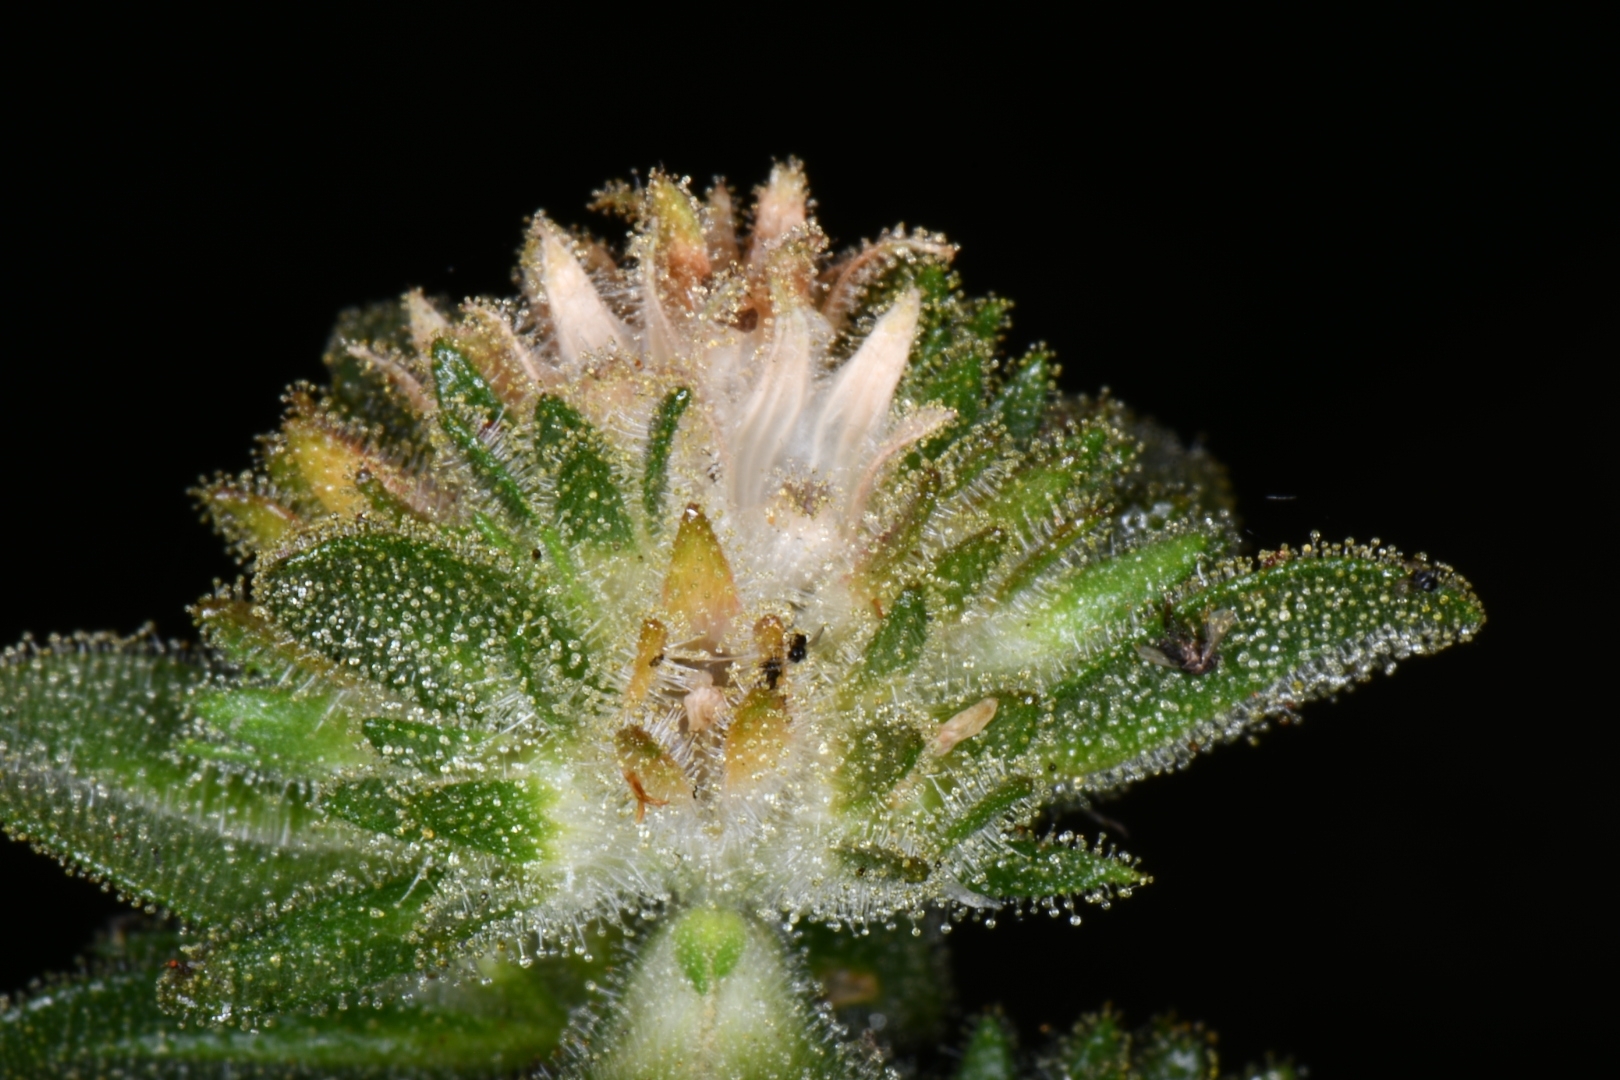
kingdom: Plantae
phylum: Tracheophyta
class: Magnoliopsida
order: Ericales
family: Polemoniaceae
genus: Collomia
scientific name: Collomia grandiflora
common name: California strawflower
